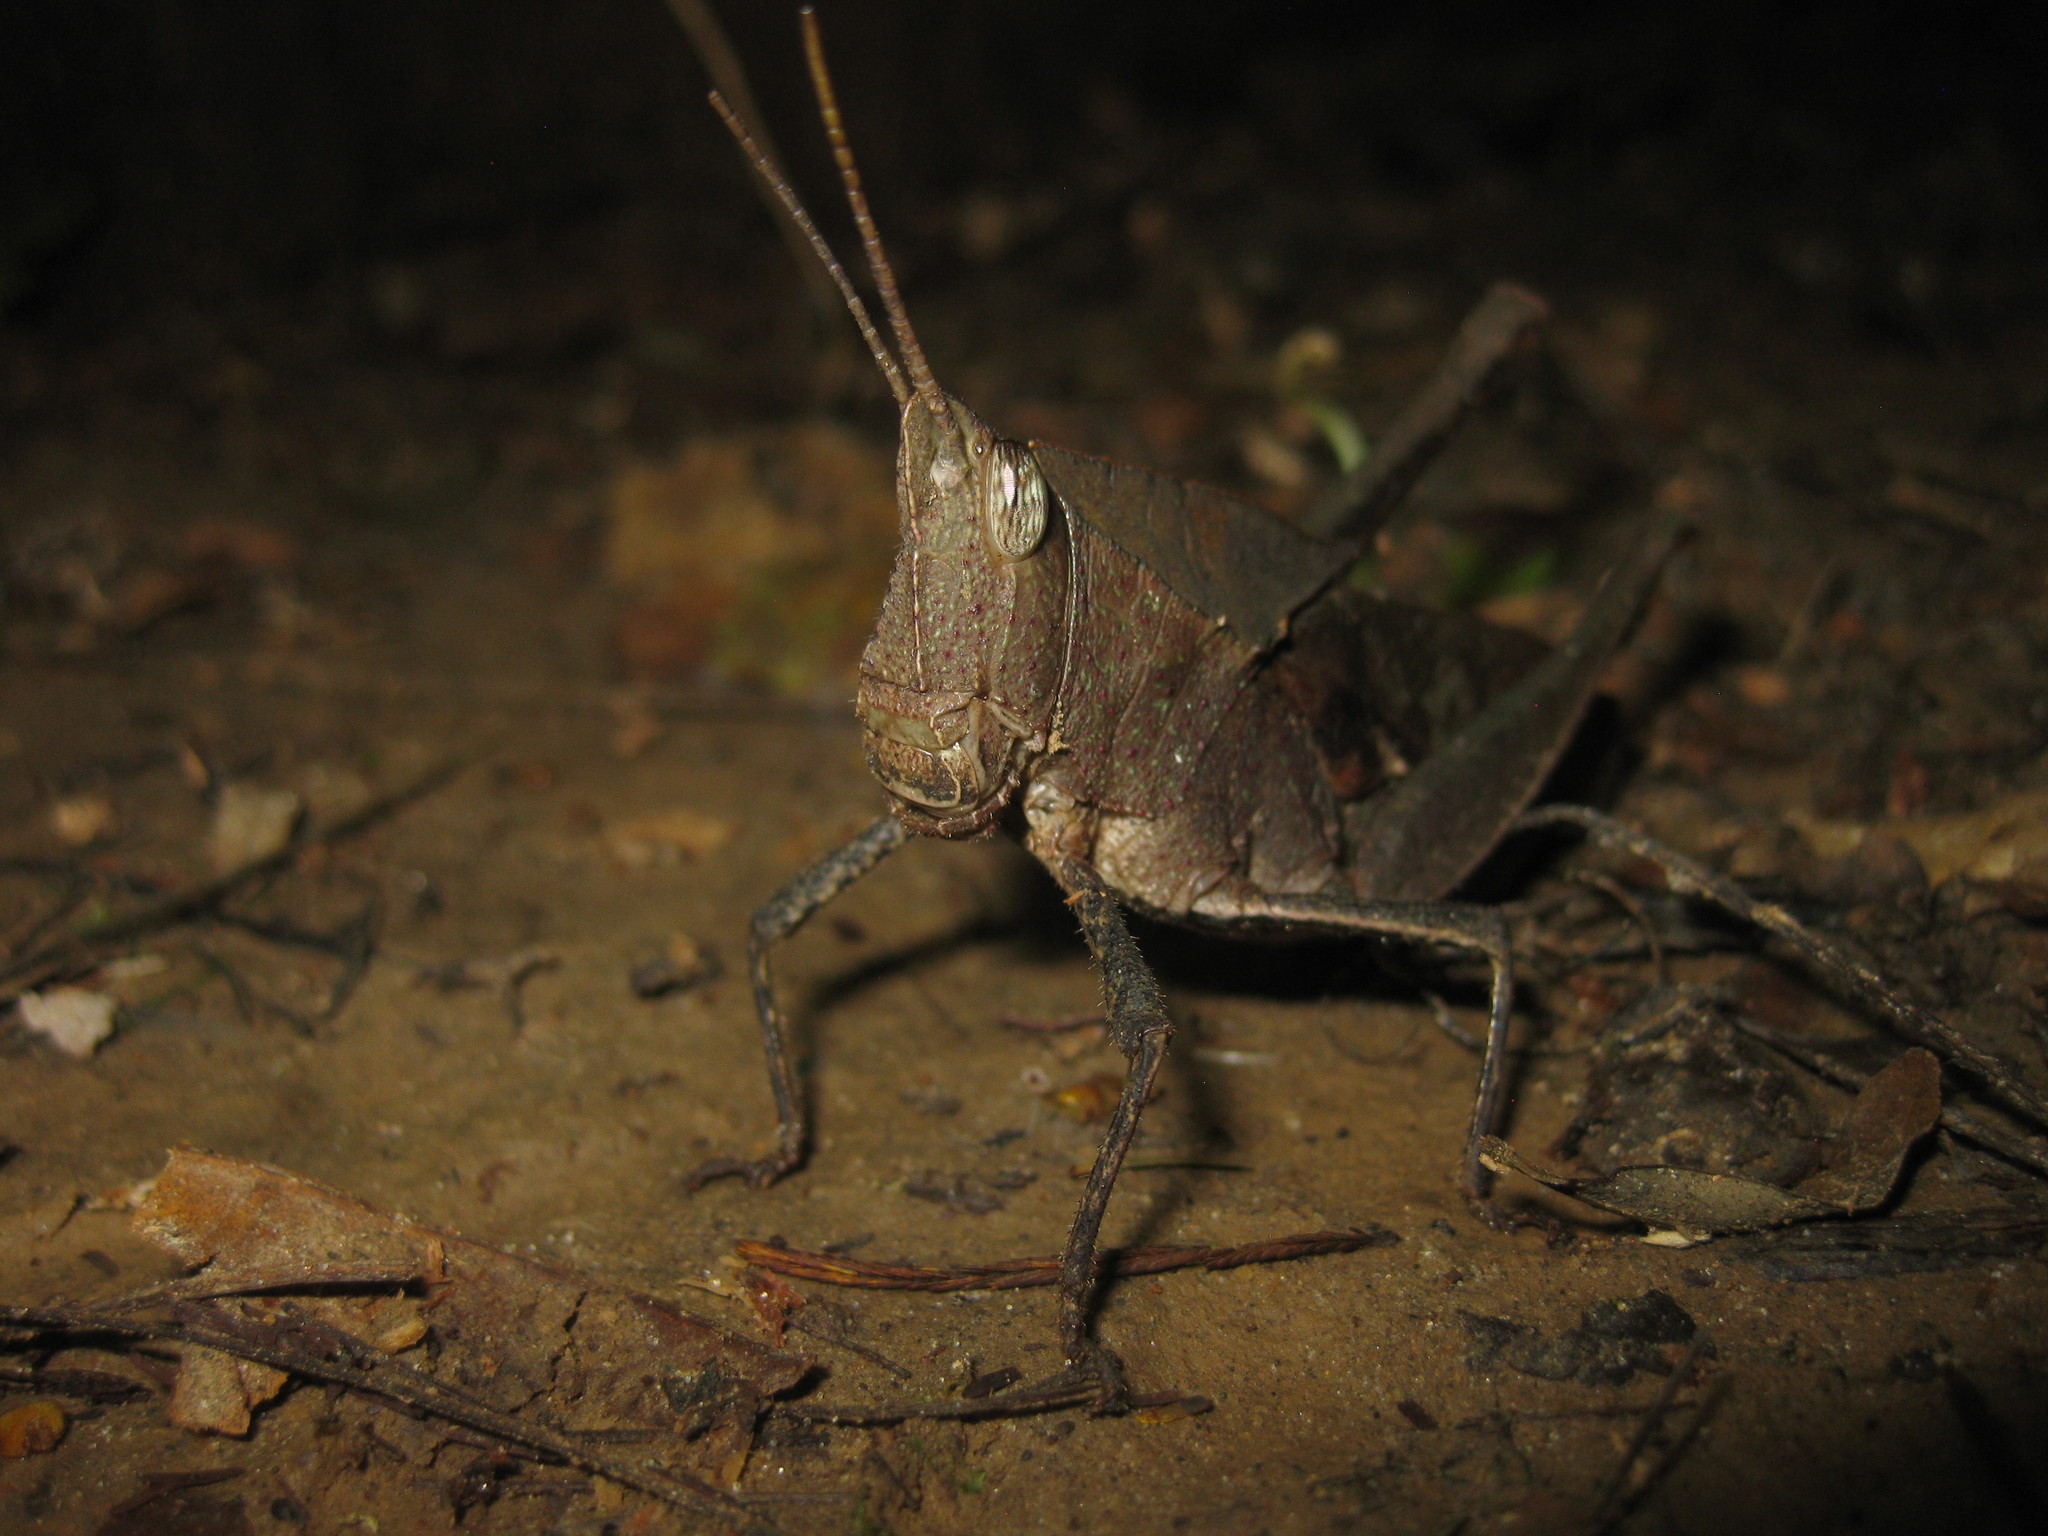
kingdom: Animalia
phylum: Arthropoda
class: Insecta
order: Orthoptera
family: Romaleidae
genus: Colpolopha
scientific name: Colpolopha latipennis
